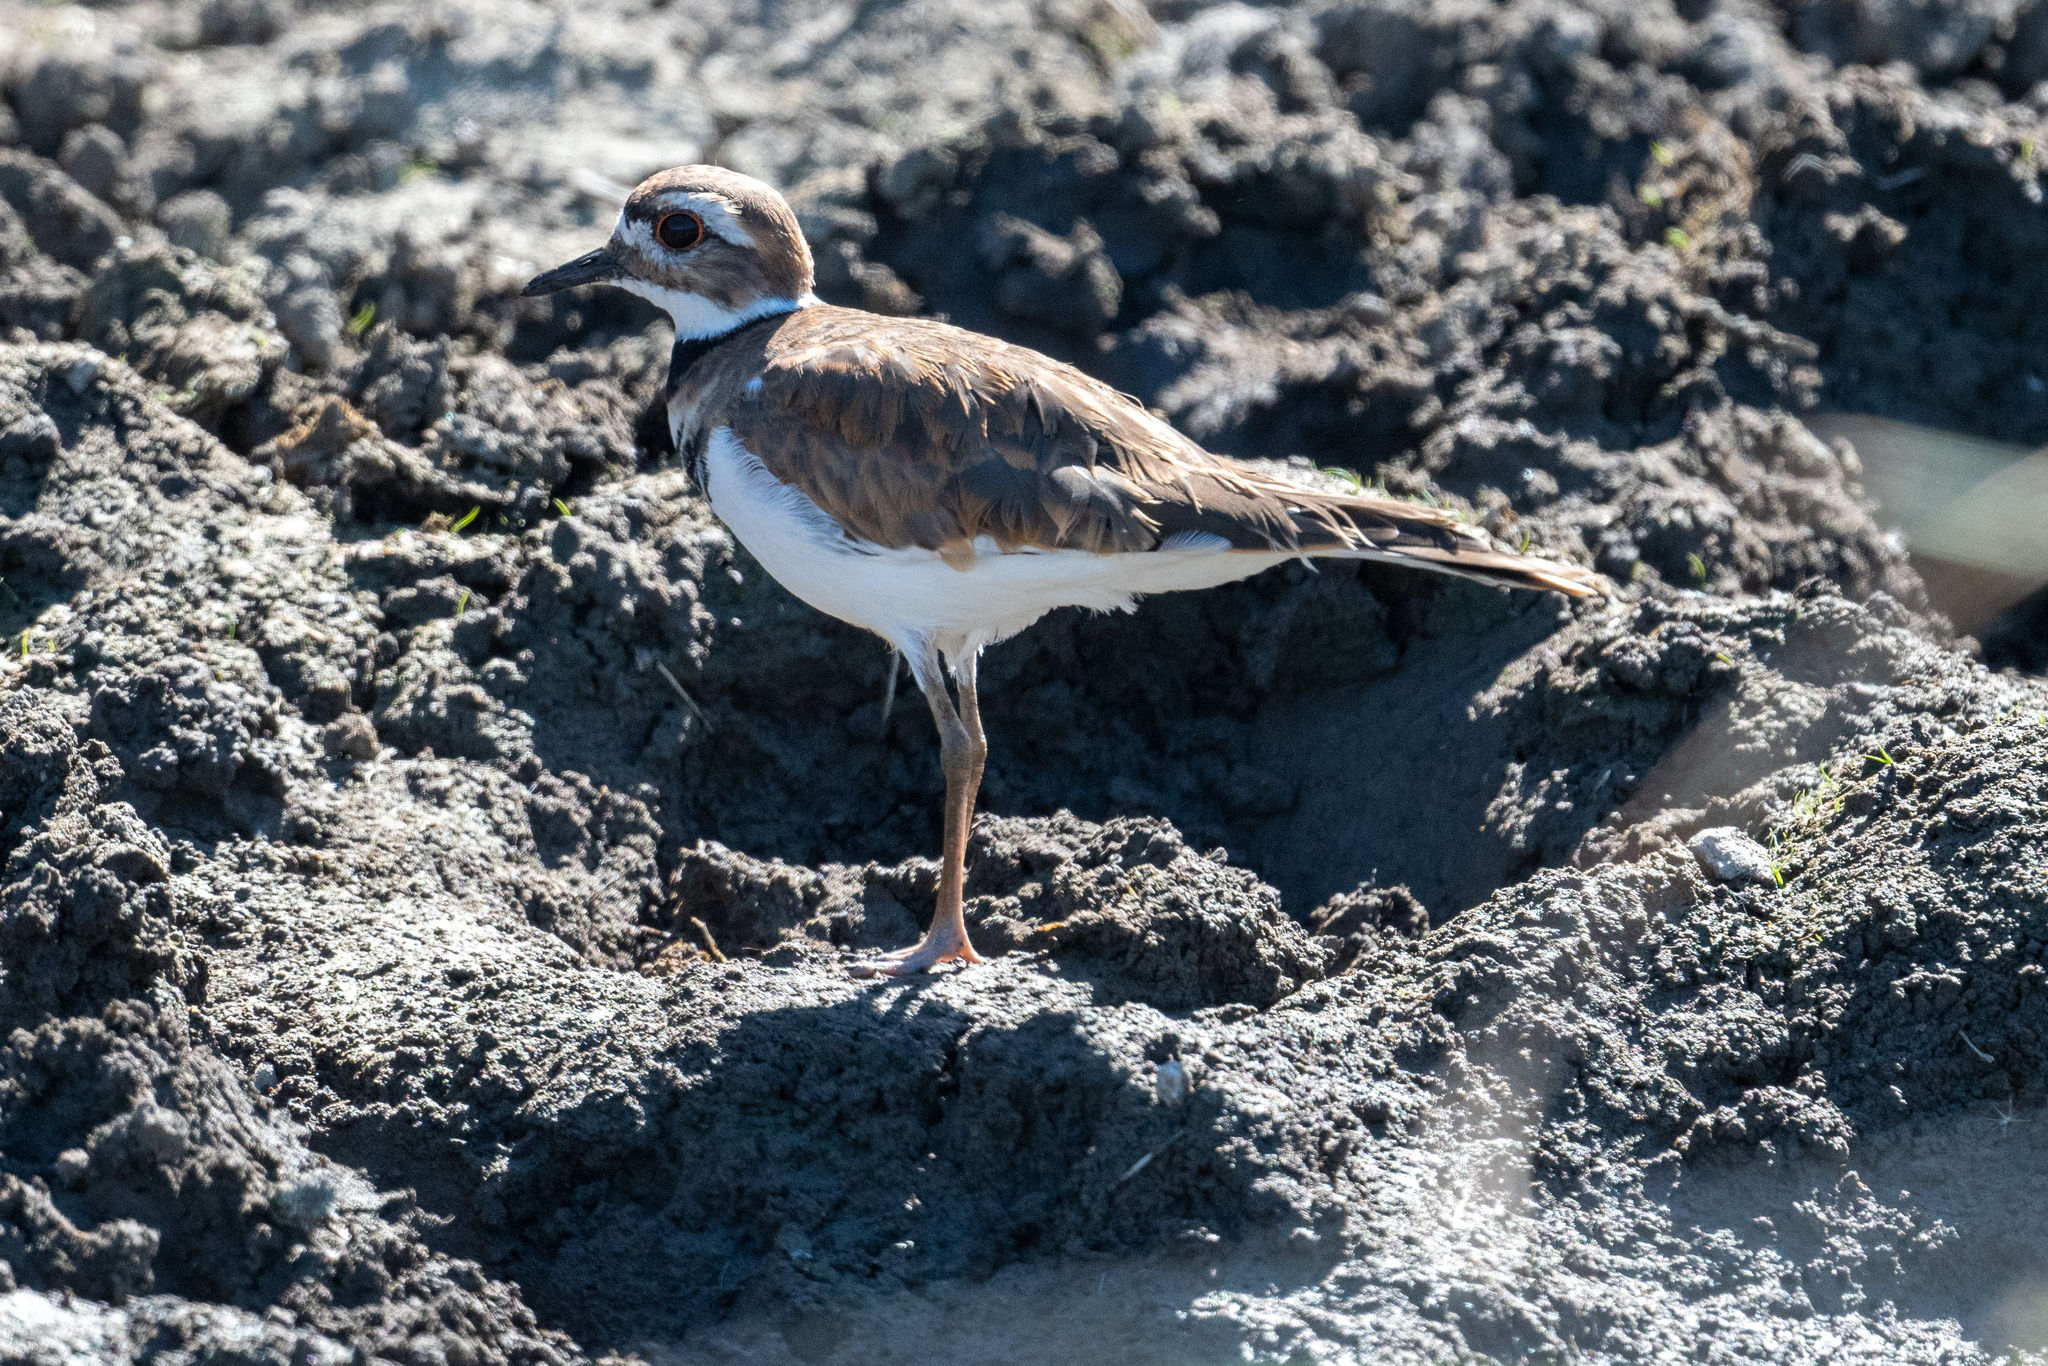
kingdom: Animalia
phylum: Chordata
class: Aves
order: Charadriiformes
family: Charadriidae
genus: Charadrius
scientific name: Charadrius vociferus
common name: Killdeer
